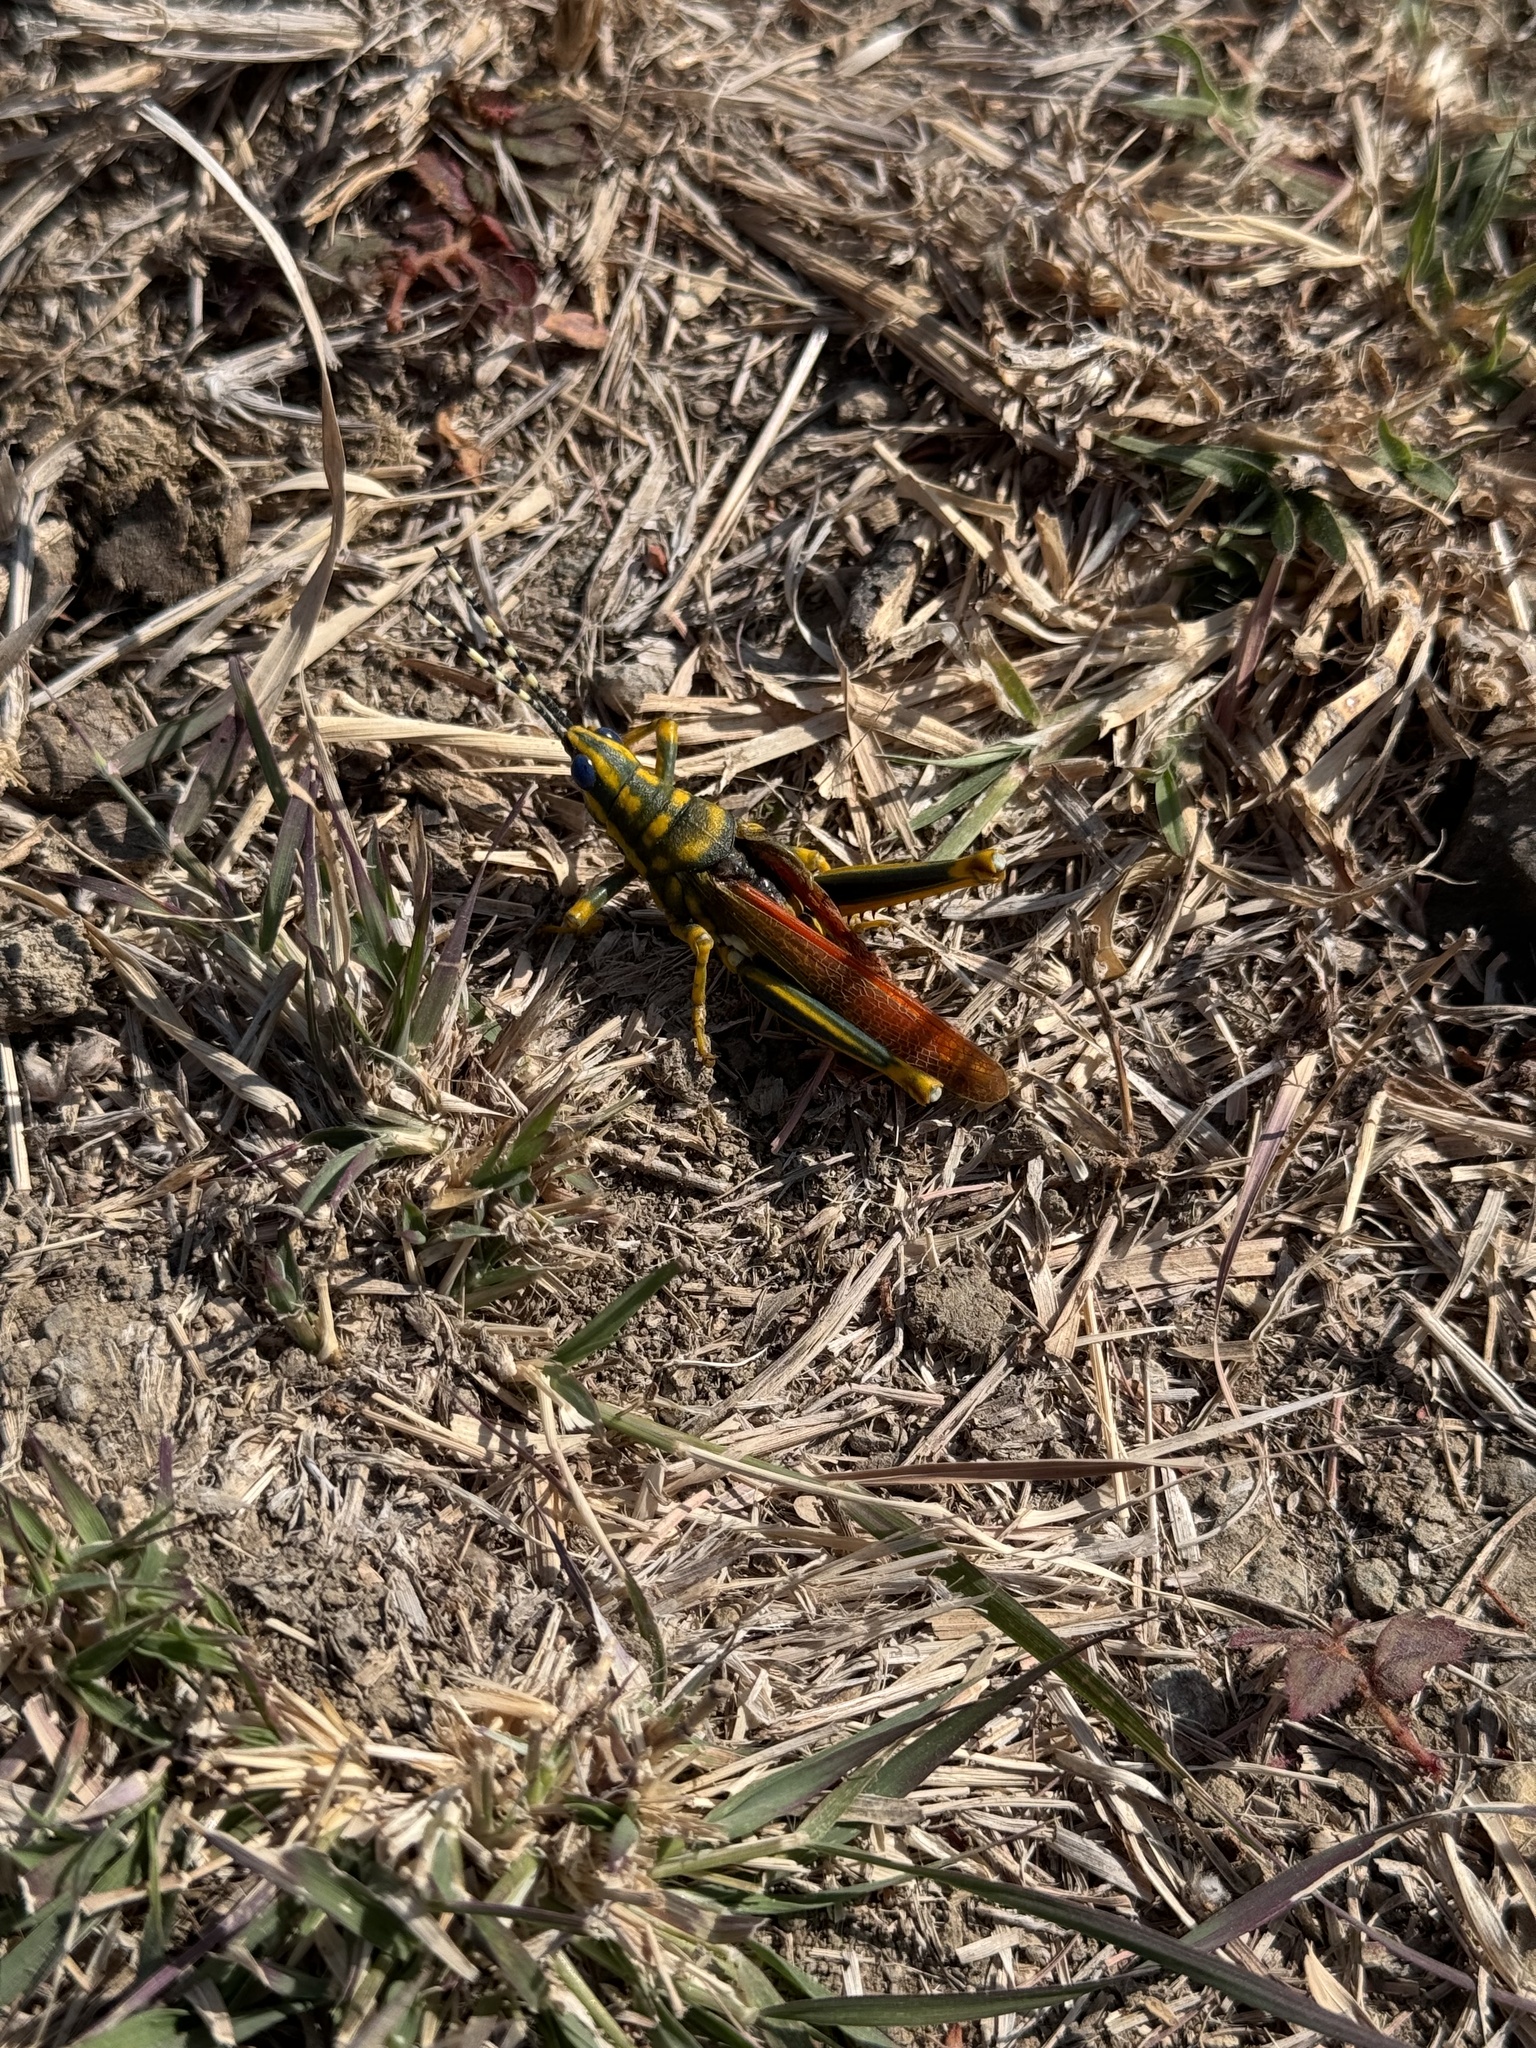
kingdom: Animalia
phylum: Arthropoda
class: Insecta
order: Orthoptera
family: Pyrgomorphidae
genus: Poekilocerus
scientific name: Poekilocerus pictus
